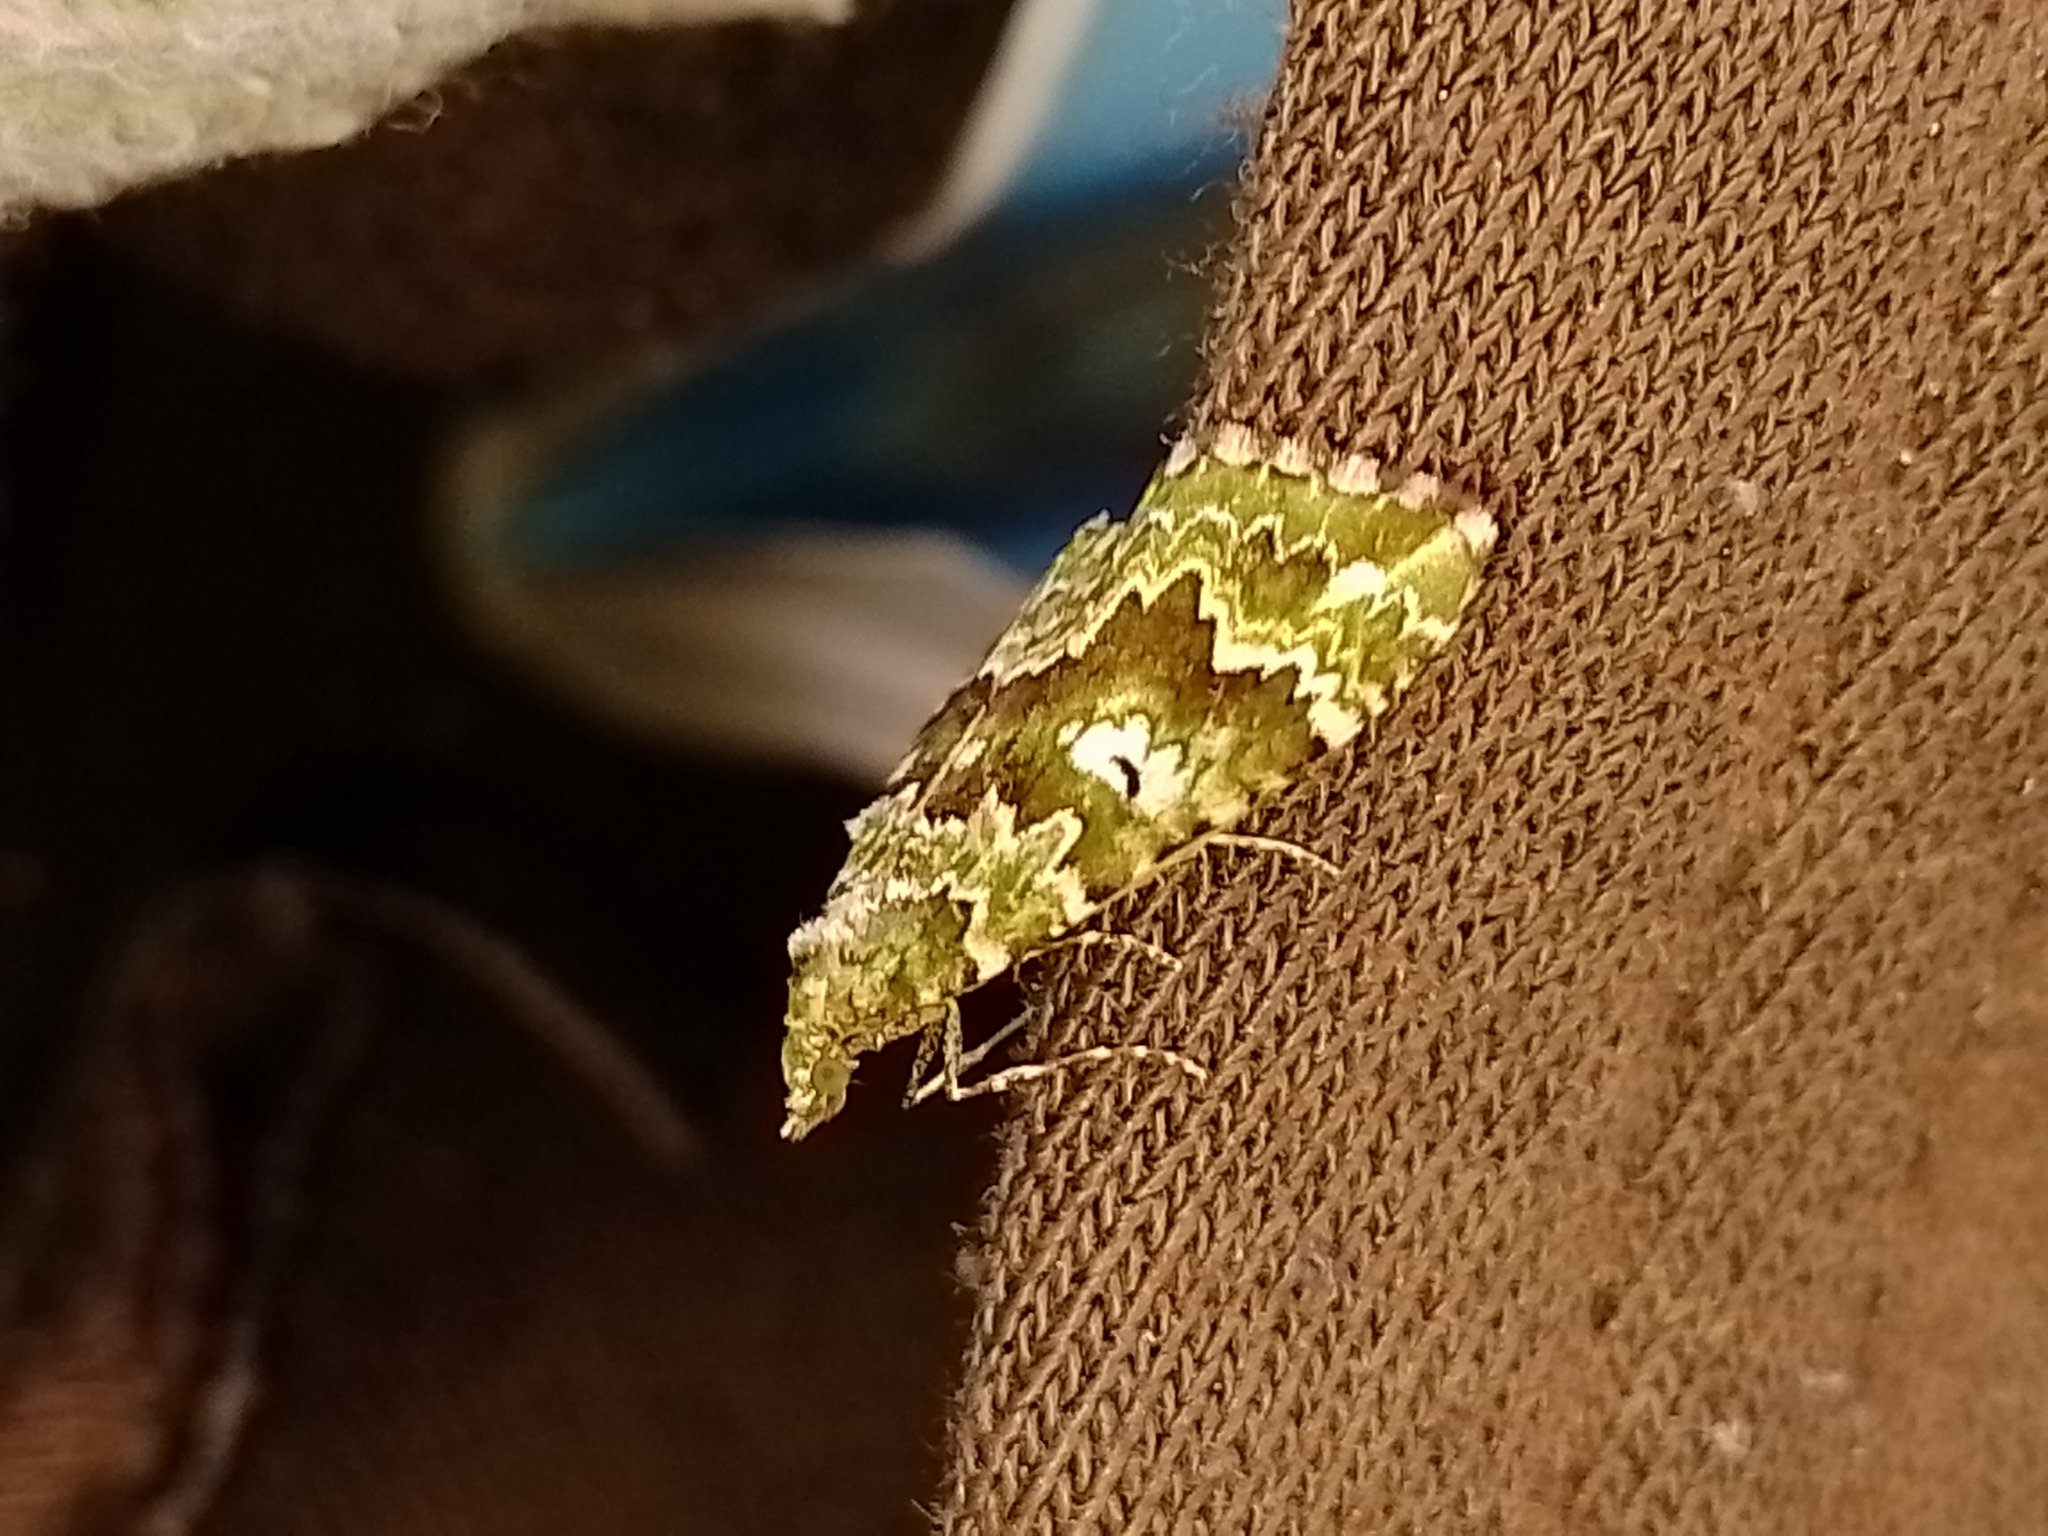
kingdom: Animalia
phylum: Arthropoda
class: Insecta
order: Lepidoptera
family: Geometridae
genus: Asaphodes
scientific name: Asaphodes beata
